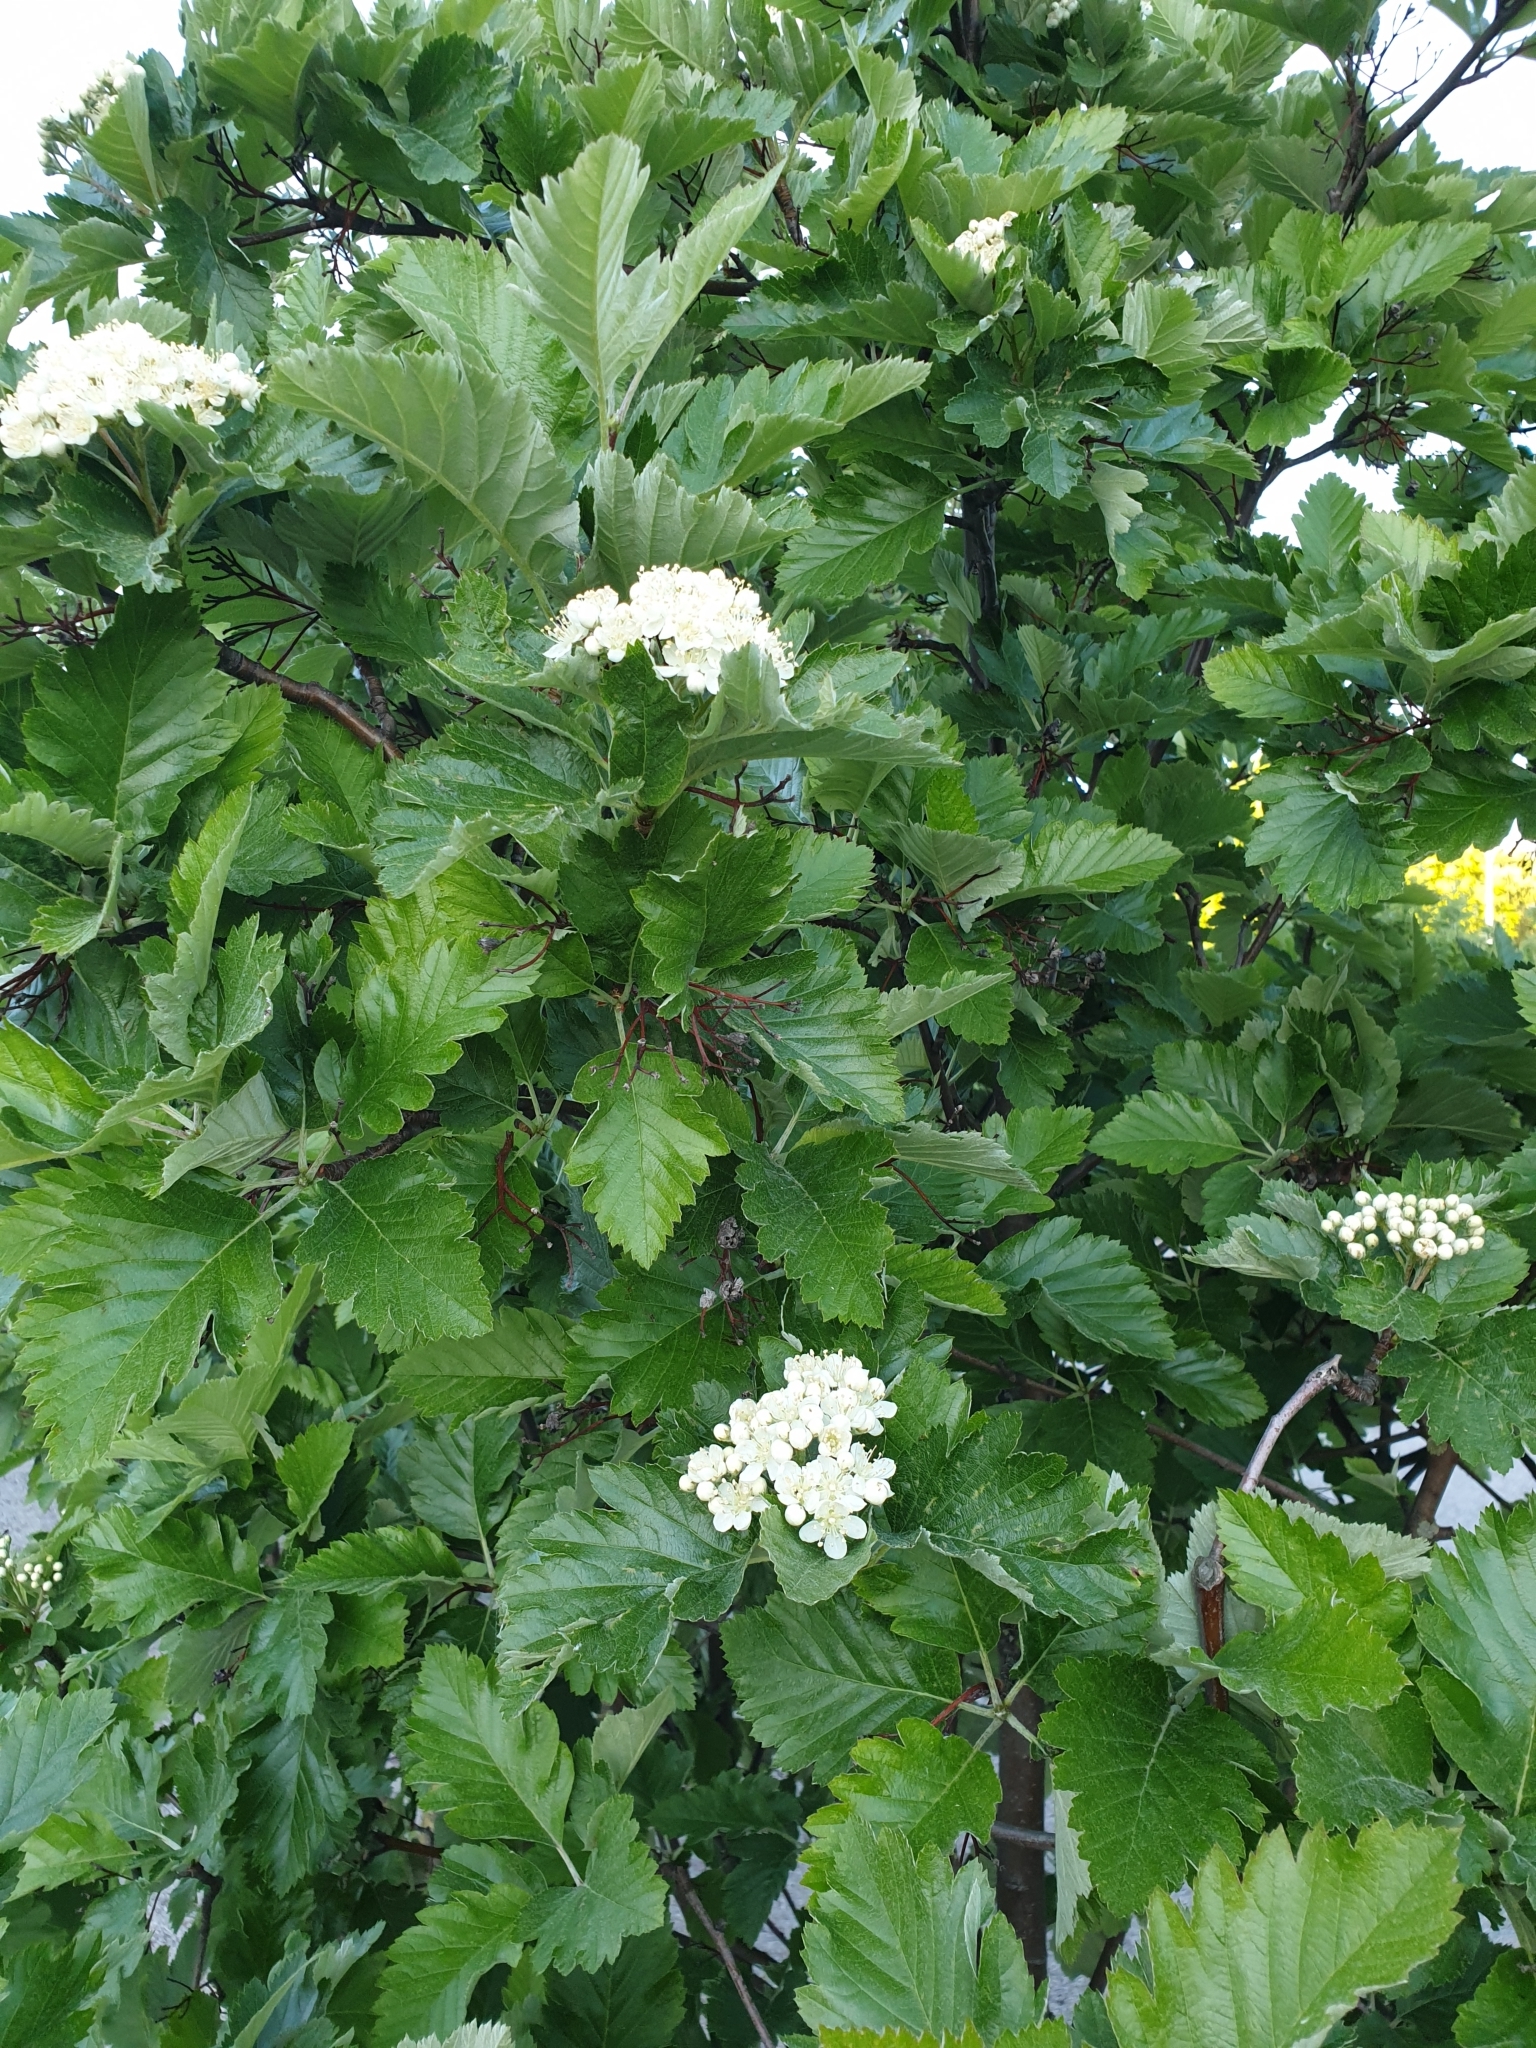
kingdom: Plantae
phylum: Tracheophyta
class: Magnoliopsida
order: Rosales
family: Rosaceae
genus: Scandosorbus
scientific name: Scandosorbus intermedia
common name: Swedish whitebeam
